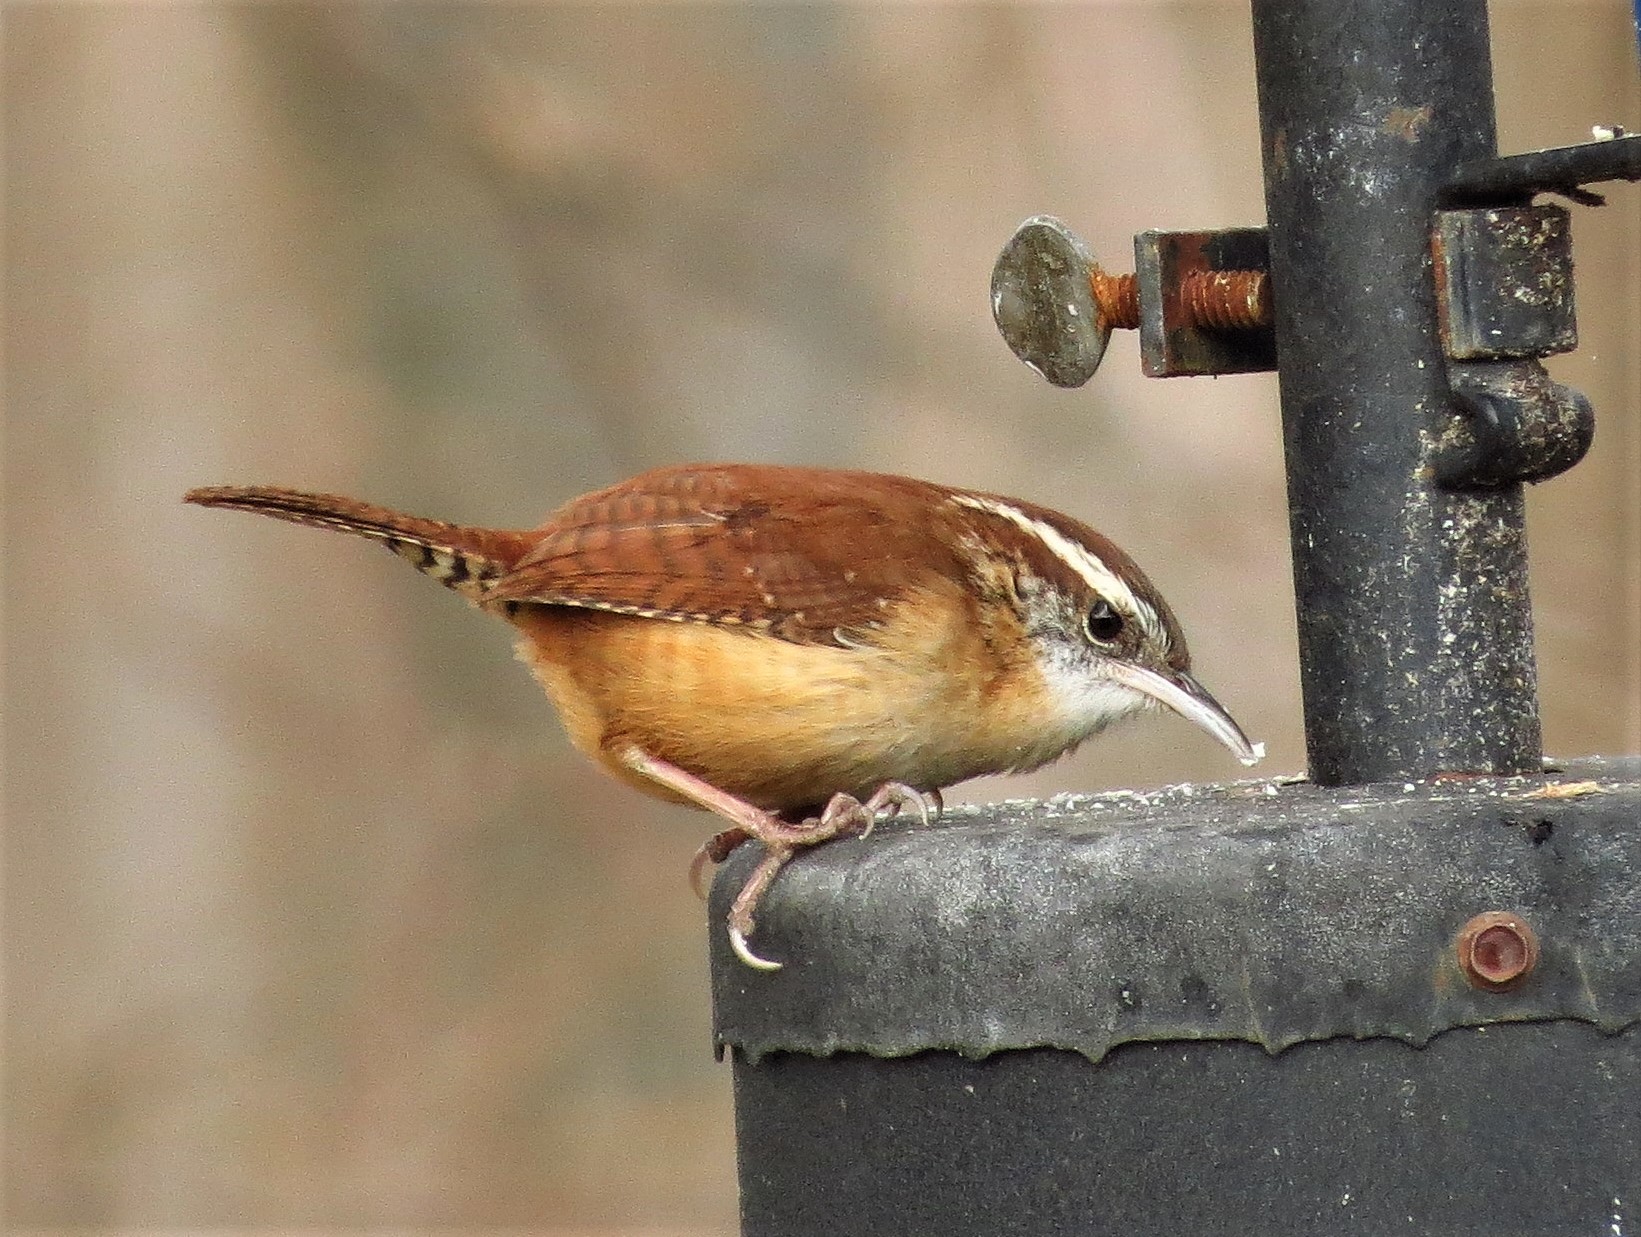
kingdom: Animalia
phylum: Chordata
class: Aves
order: Passeriformes
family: Troglodytidae
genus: Thryothorus
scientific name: Thryothorus ludovicianus
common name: Carolina wren
